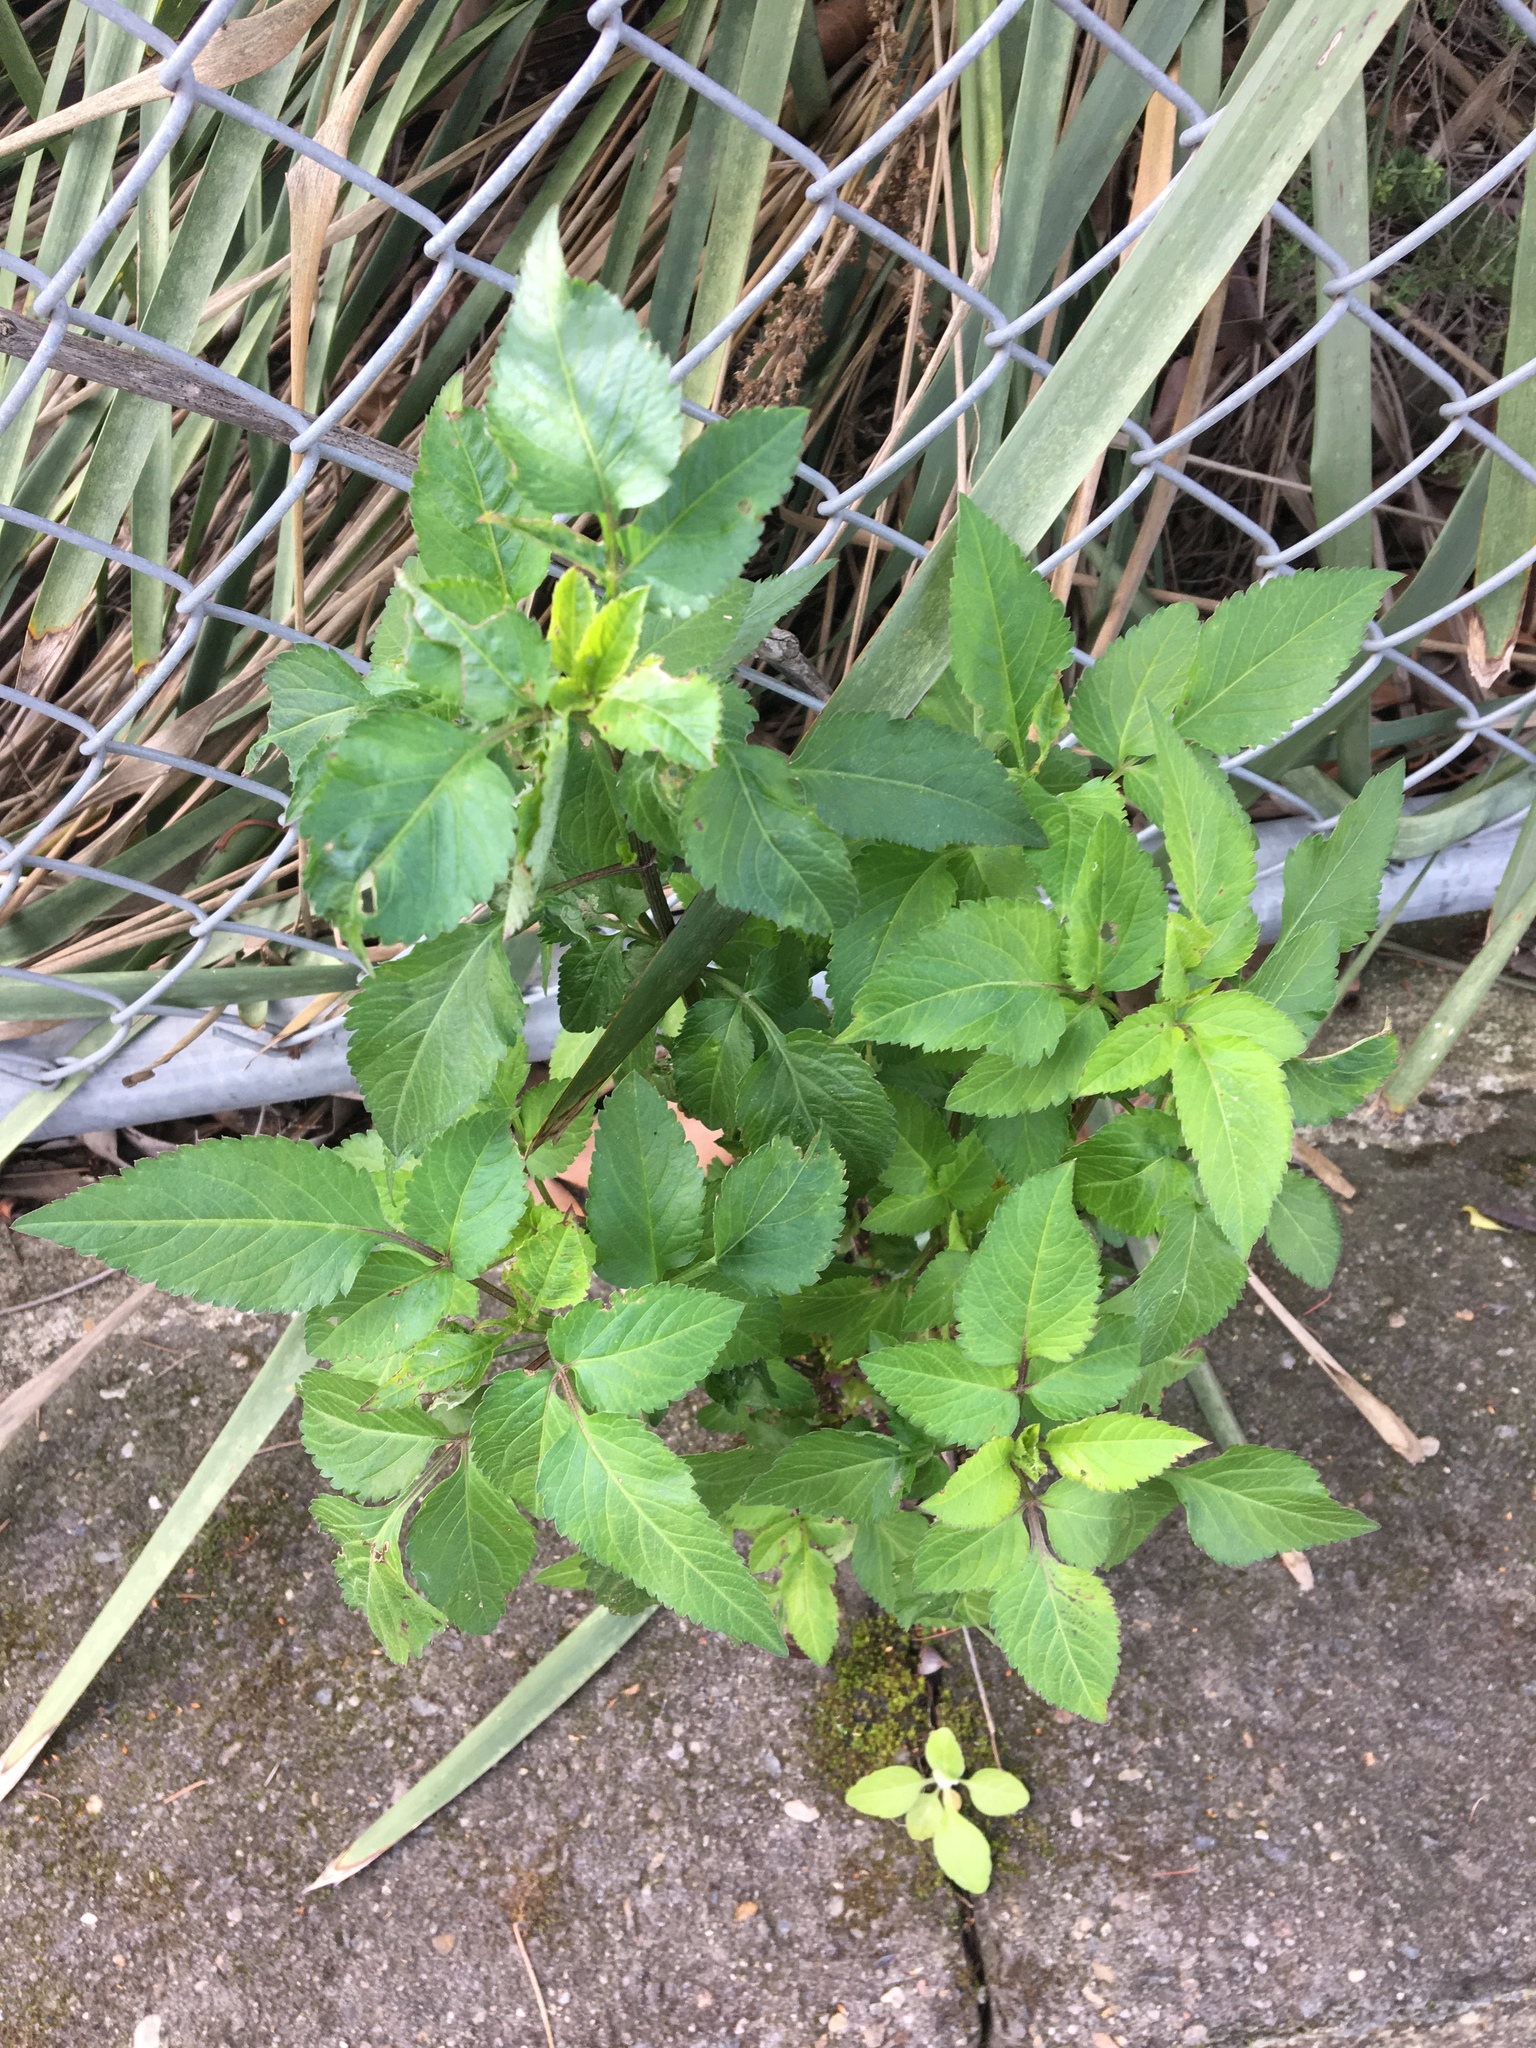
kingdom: Plantae
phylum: Tracheophyta
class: Magnoliopsida
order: Asterales
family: Asteraceae
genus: Bidens
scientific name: Bidens pilosa
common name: Black-jack
